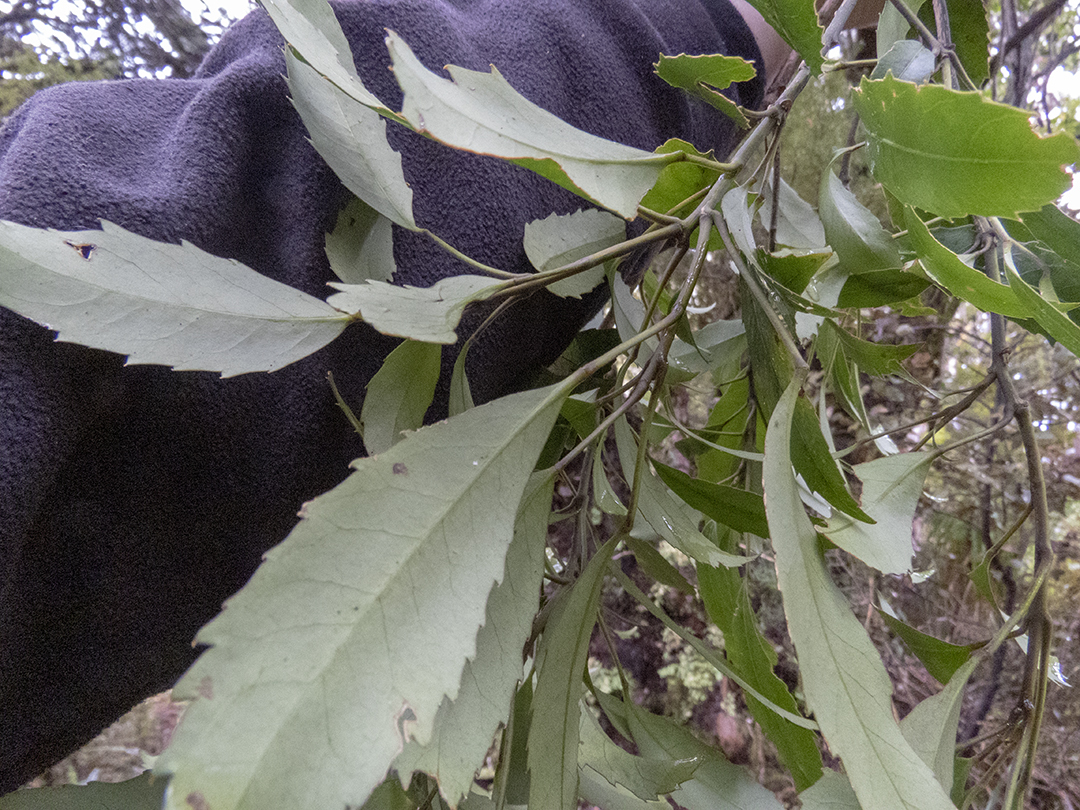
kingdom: Plantae
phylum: Tracheophyta
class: Magnoliopsida
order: Apiales
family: Araliaceae
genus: Raukaua
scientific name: Raukaua simplex
